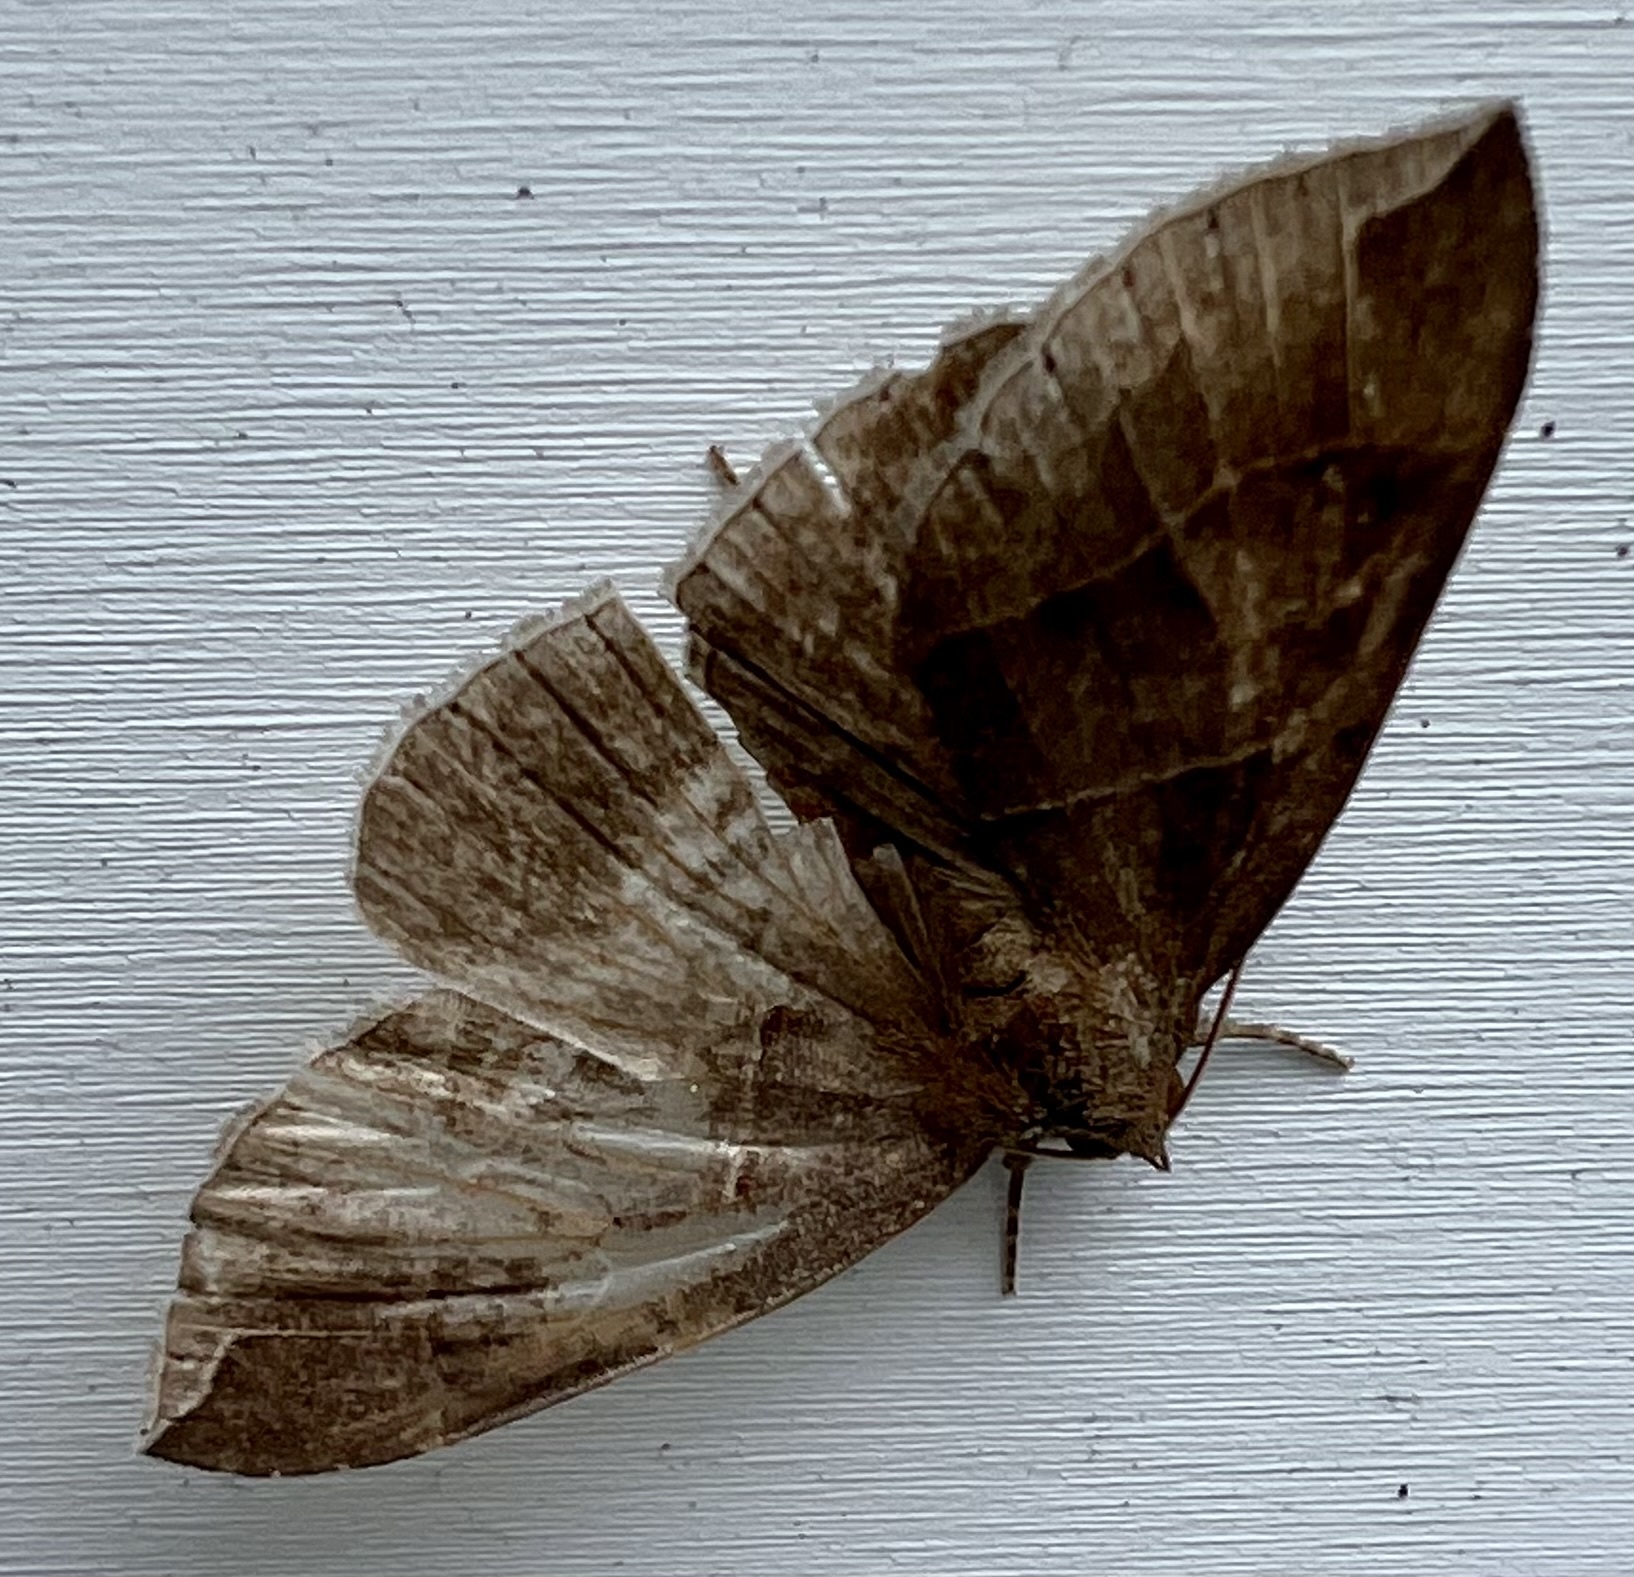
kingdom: Animalia
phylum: Arthropoda
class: Insecta
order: Lepidoptera
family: Erebidae
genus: Parallelia
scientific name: Parallelia bistriaris
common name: Maple looper moth
